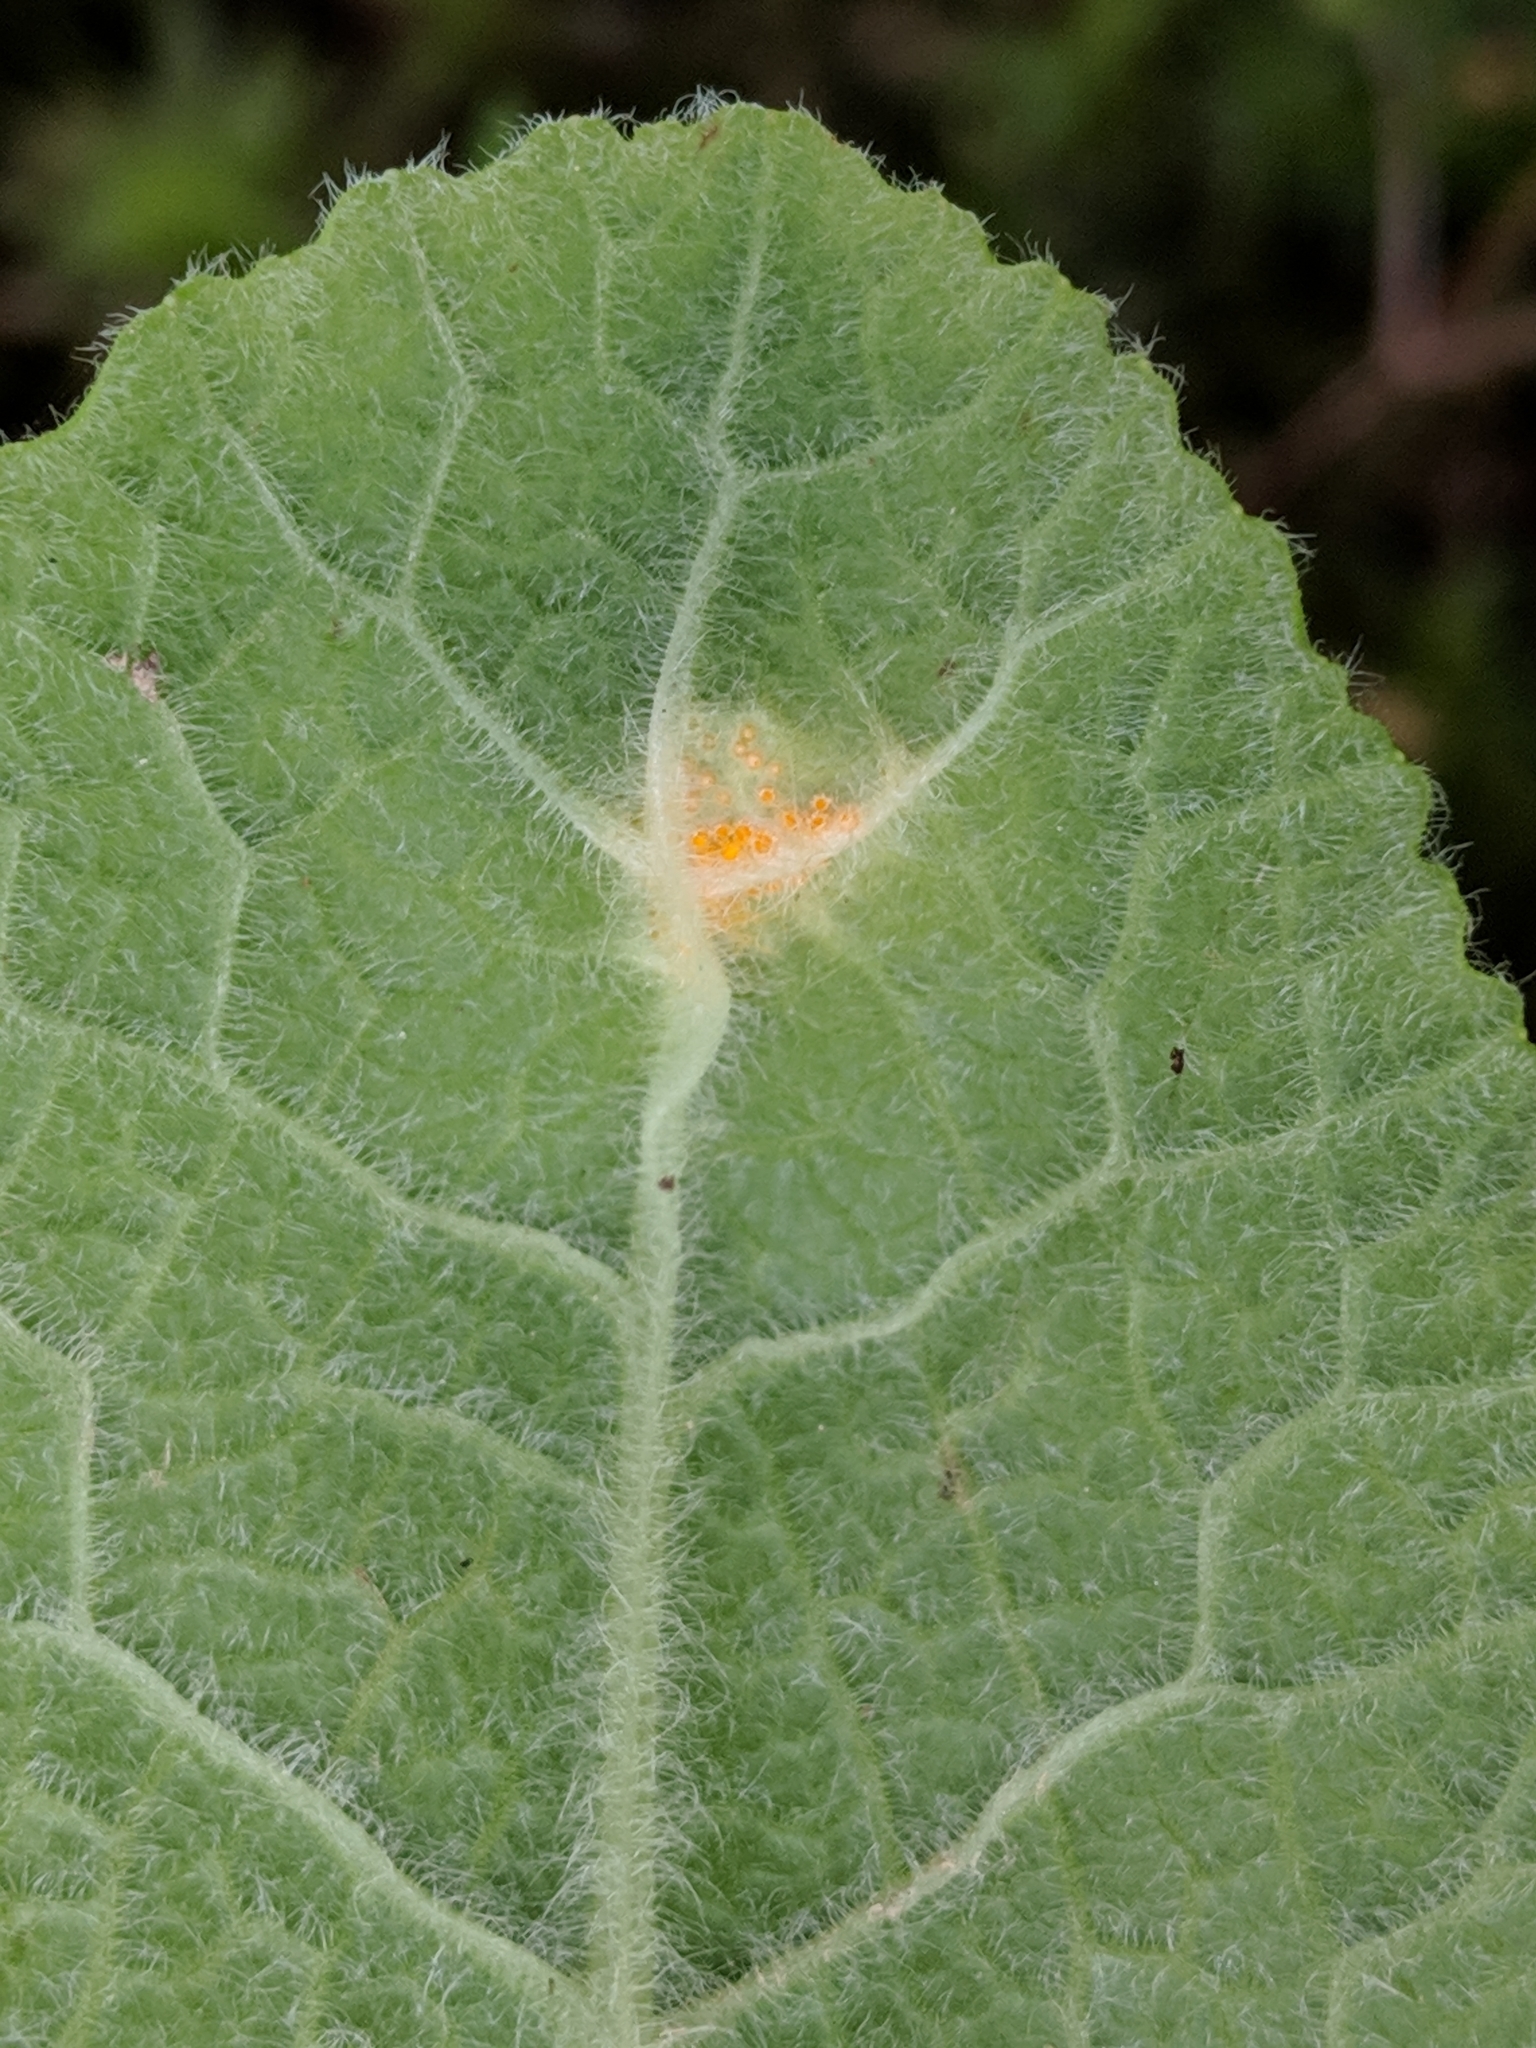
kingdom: Fungi
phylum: Basidiomycota
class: Pucciniomycetes
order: Pucciniales
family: Pucciniaceae
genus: Puccinia
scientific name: Puccinia primulae
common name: Primrose rust
